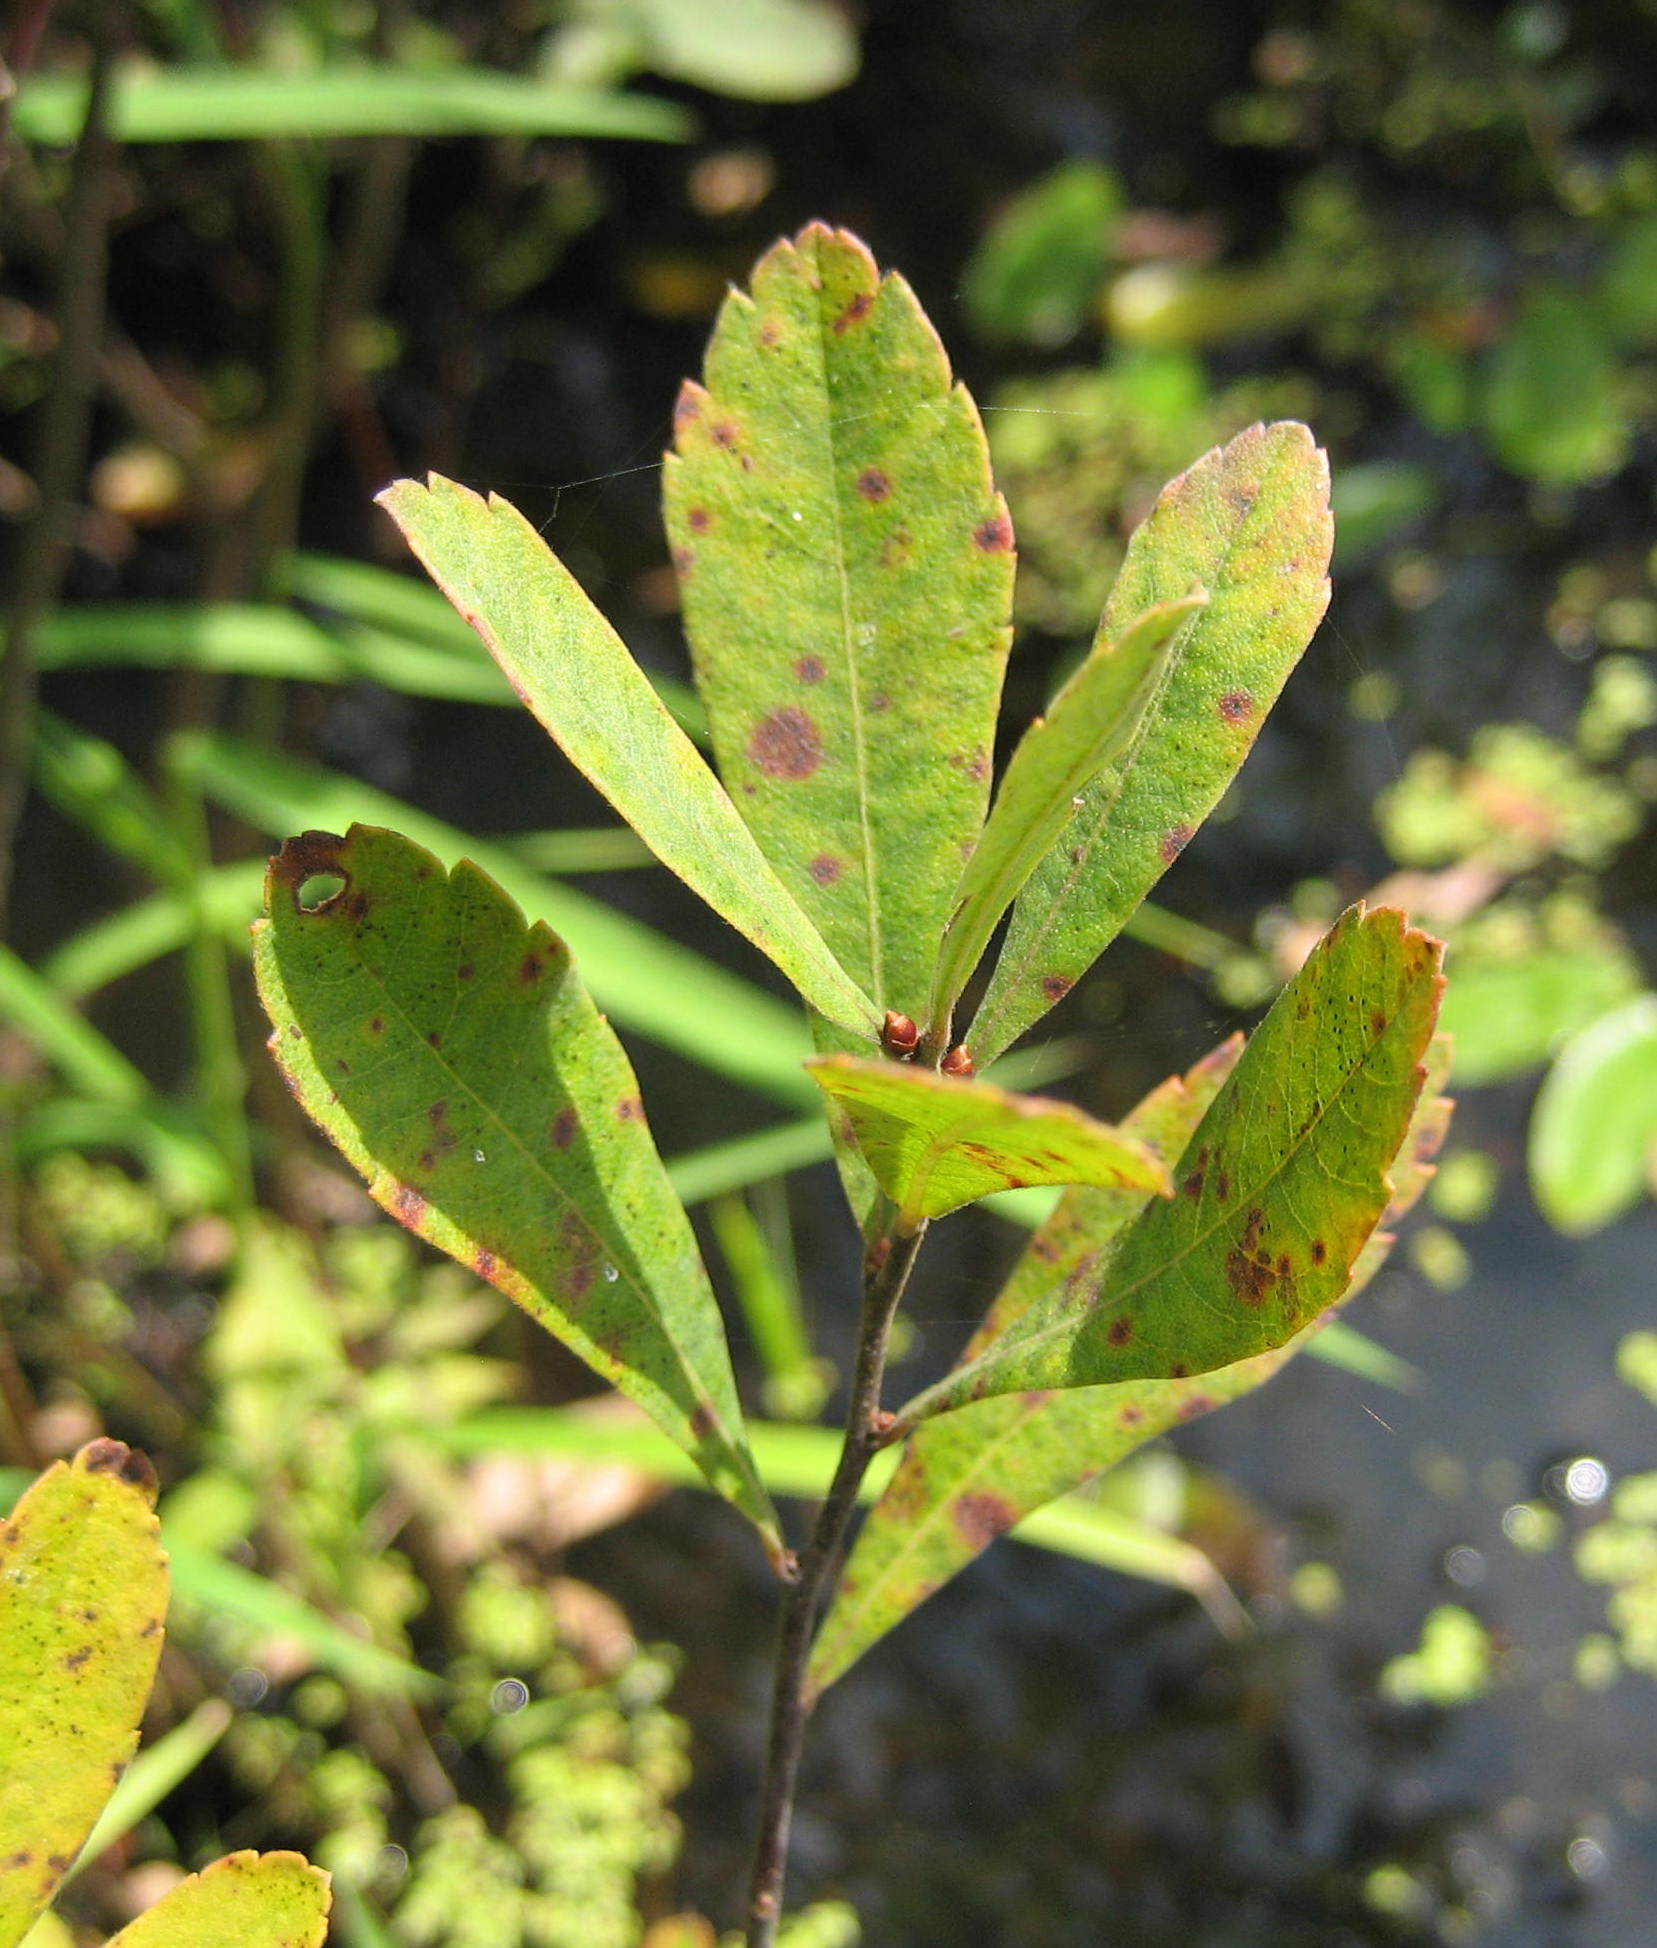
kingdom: Plantae
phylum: Tracheophyta
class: Magnoliopsida
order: Fagales
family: Myricaceae
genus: Myrica
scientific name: Myrica gale
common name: Sweet gale
